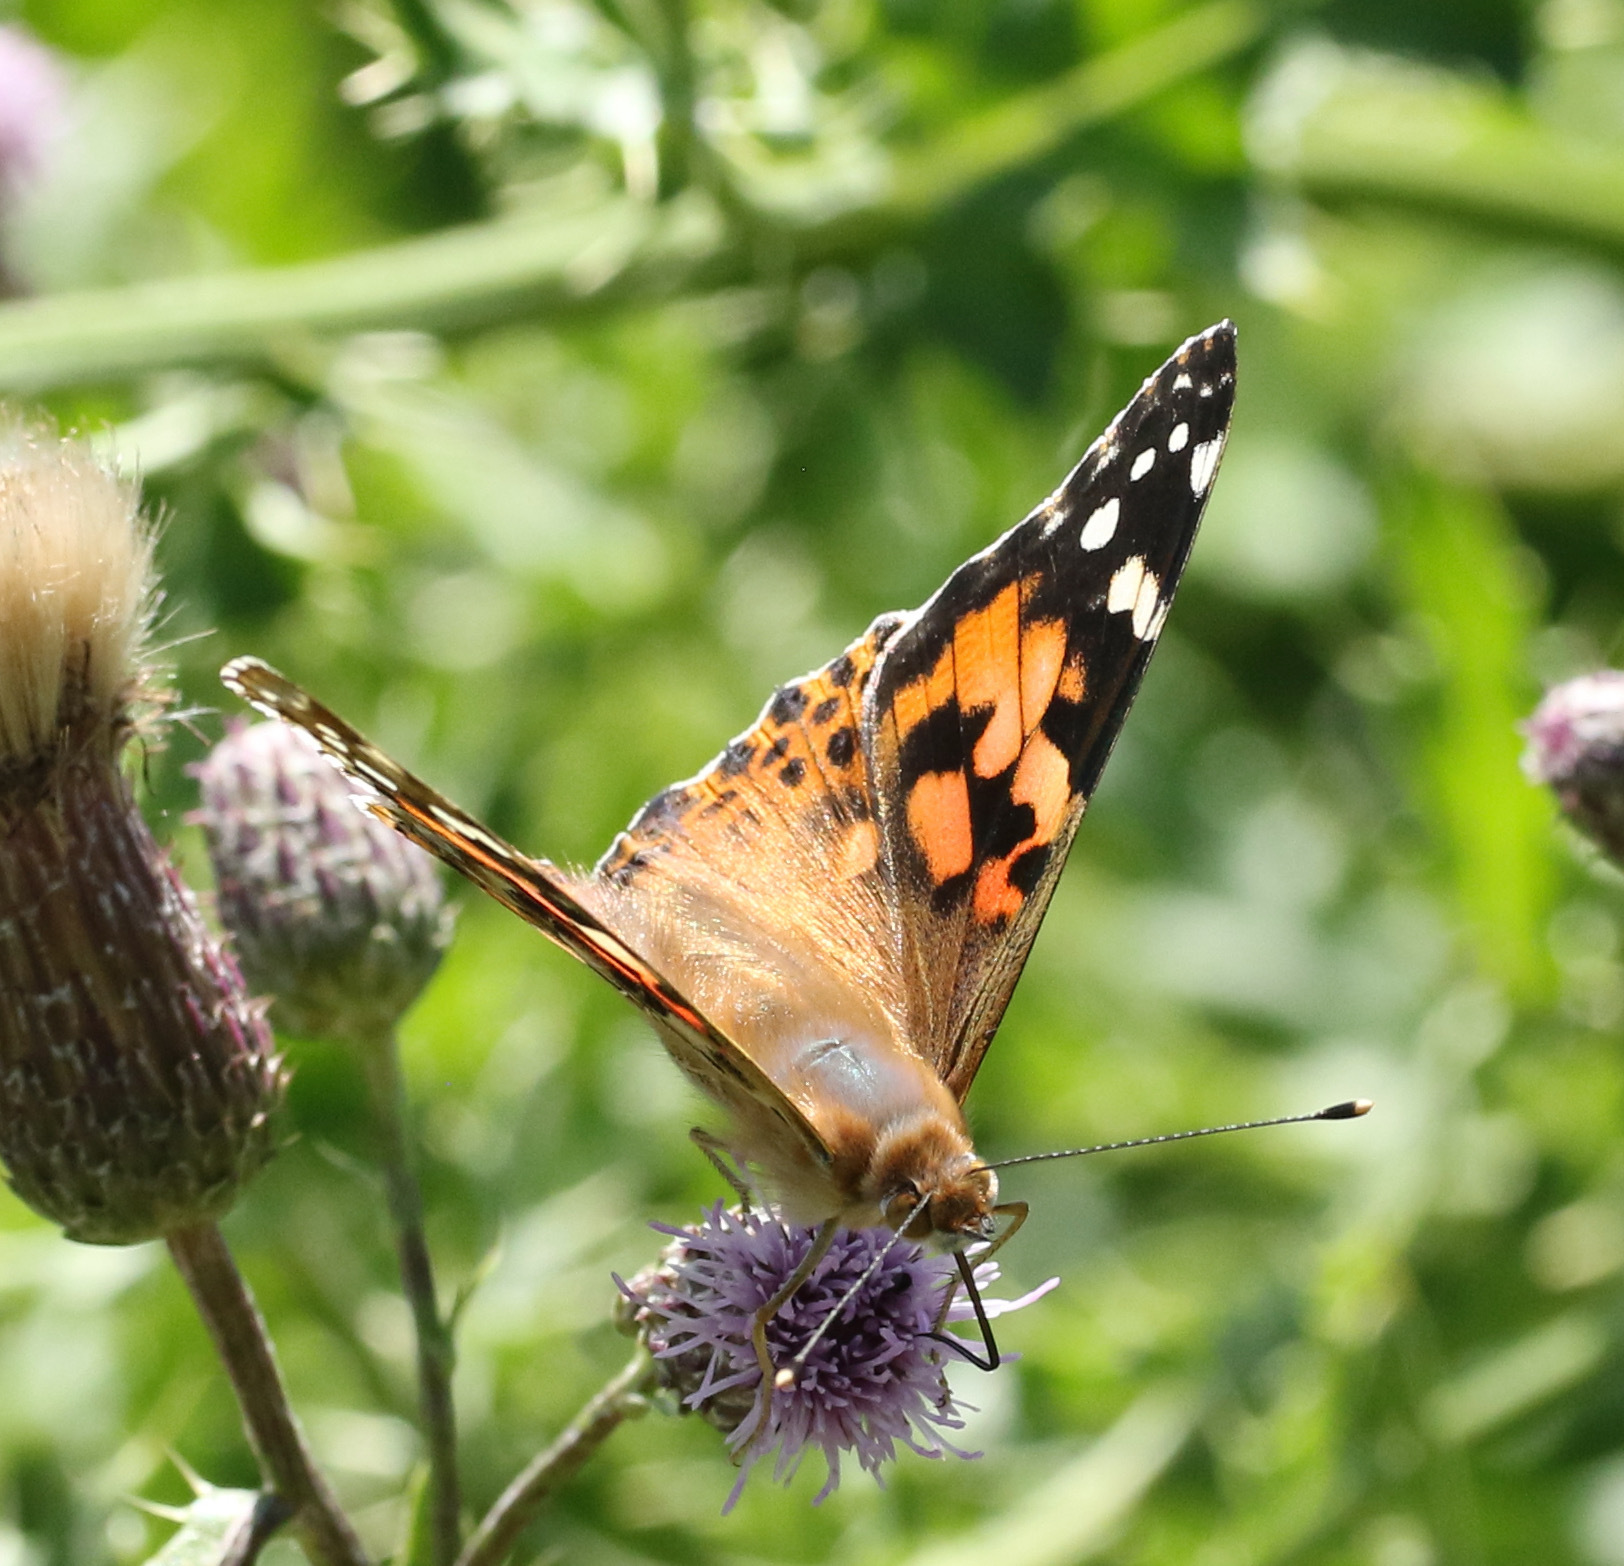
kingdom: Animalia
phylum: Arthropoda
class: Insecta
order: Lepidoptera
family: Nymphalidae
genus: Vanessa
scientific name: Vanessa cardui
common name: Painted lady
